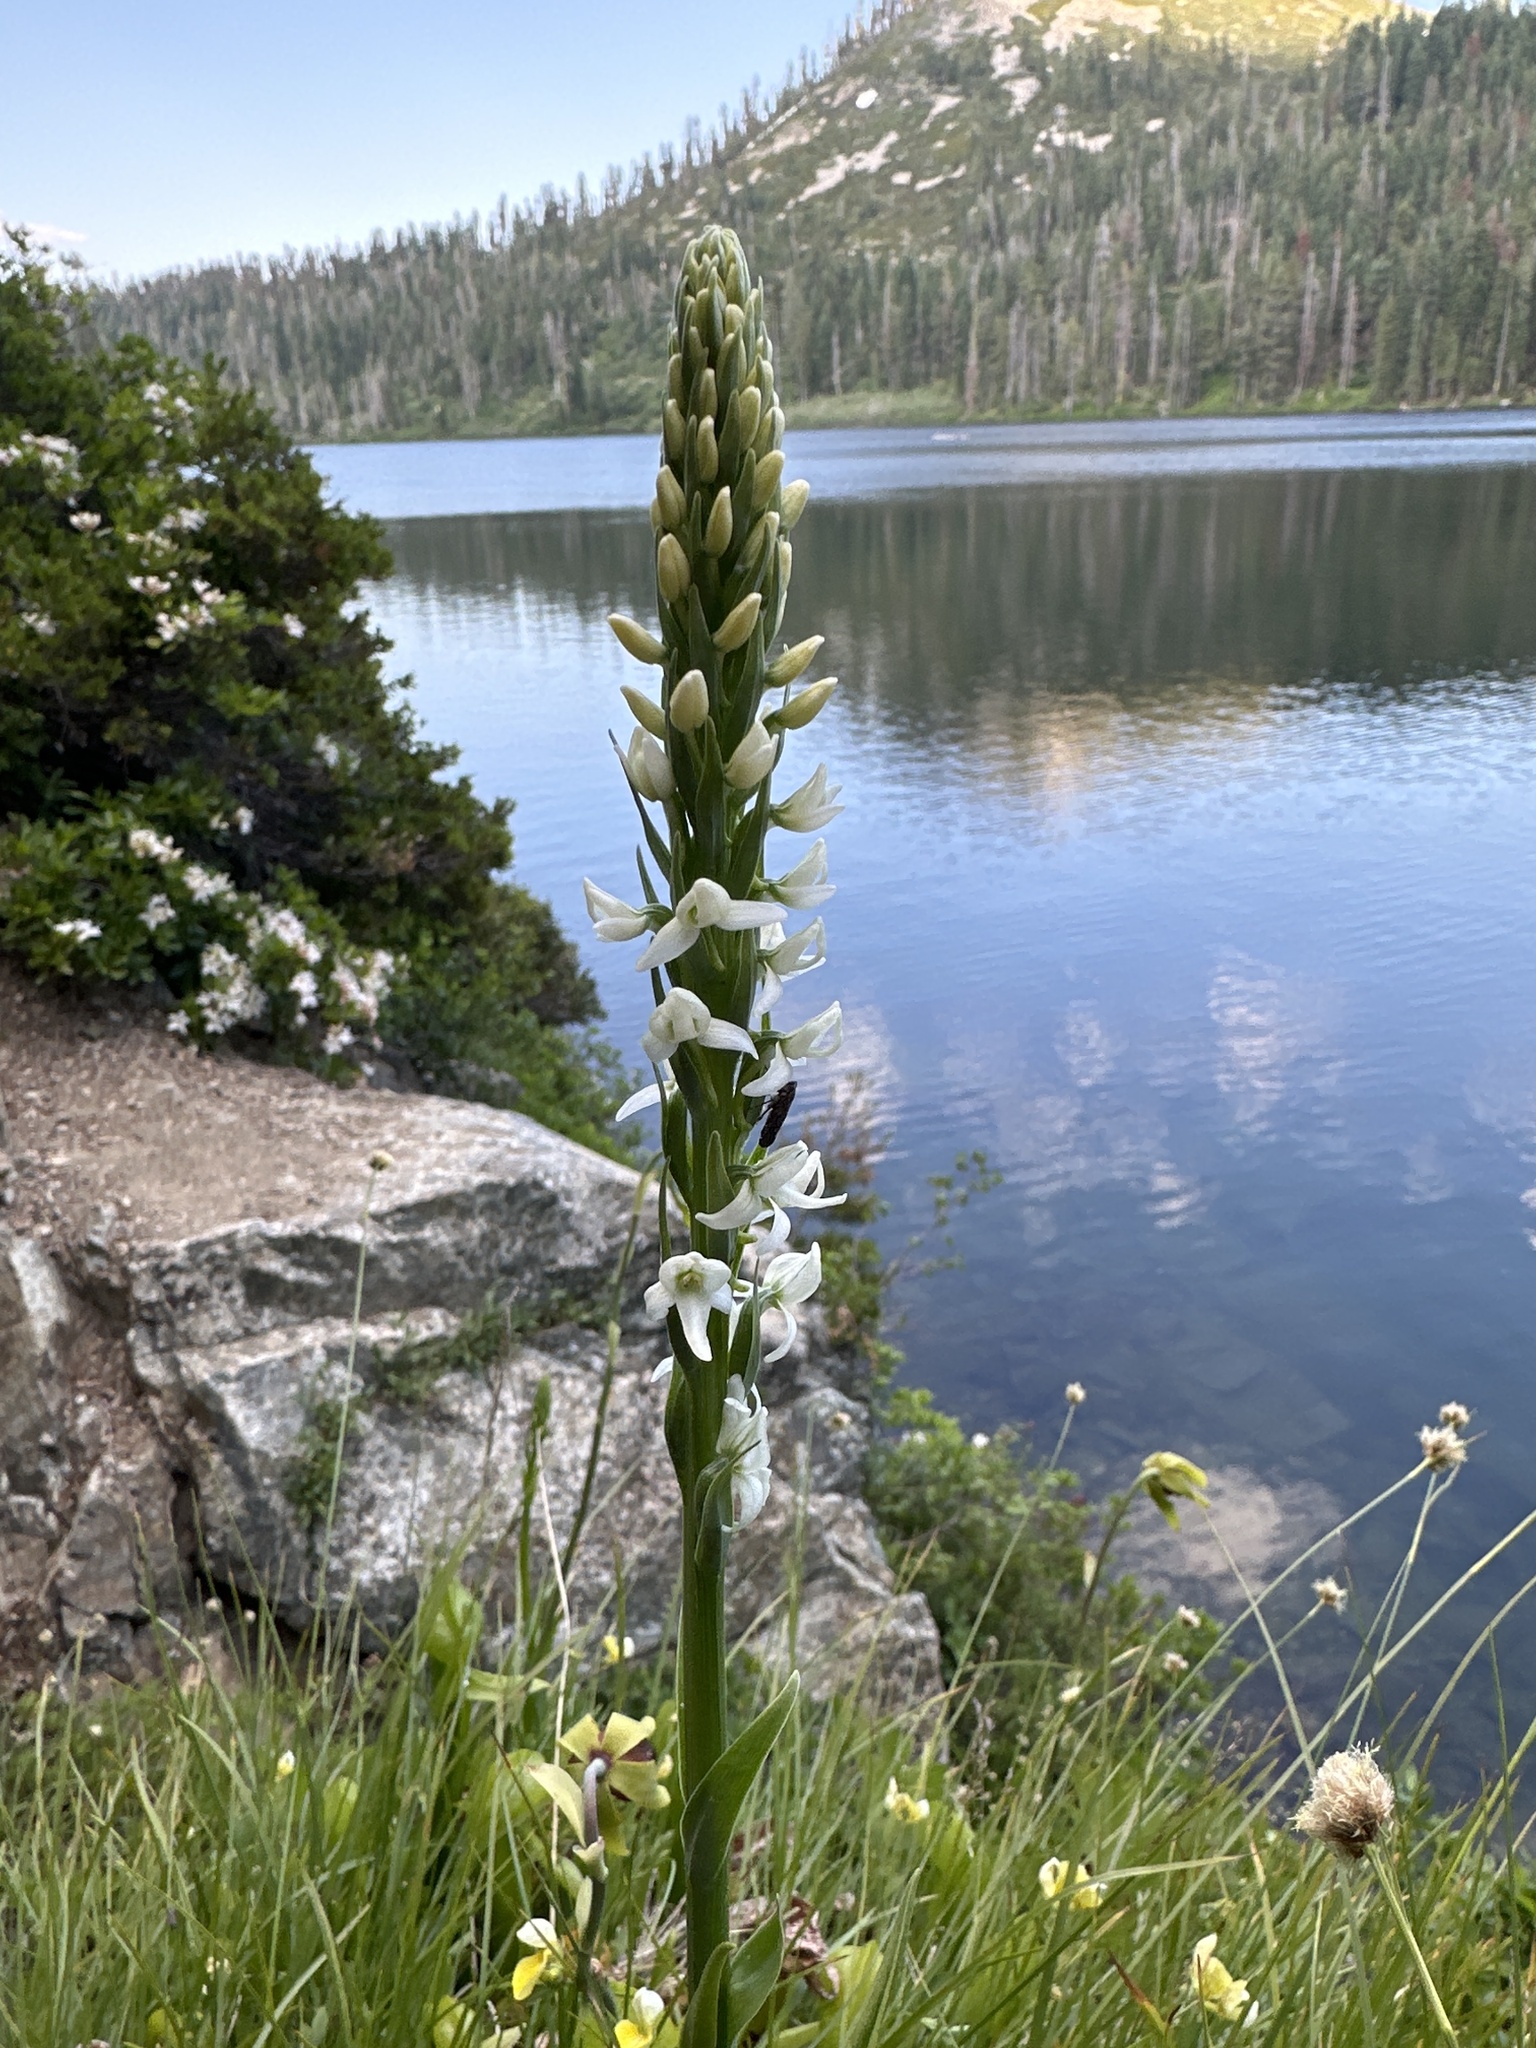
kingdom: Plantae
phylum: Tracheophyta
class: Liliopsida
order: Asparagales
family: Orchidaceae
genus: Platanthera
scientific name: Platanthera dilatata
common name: Bog candles
